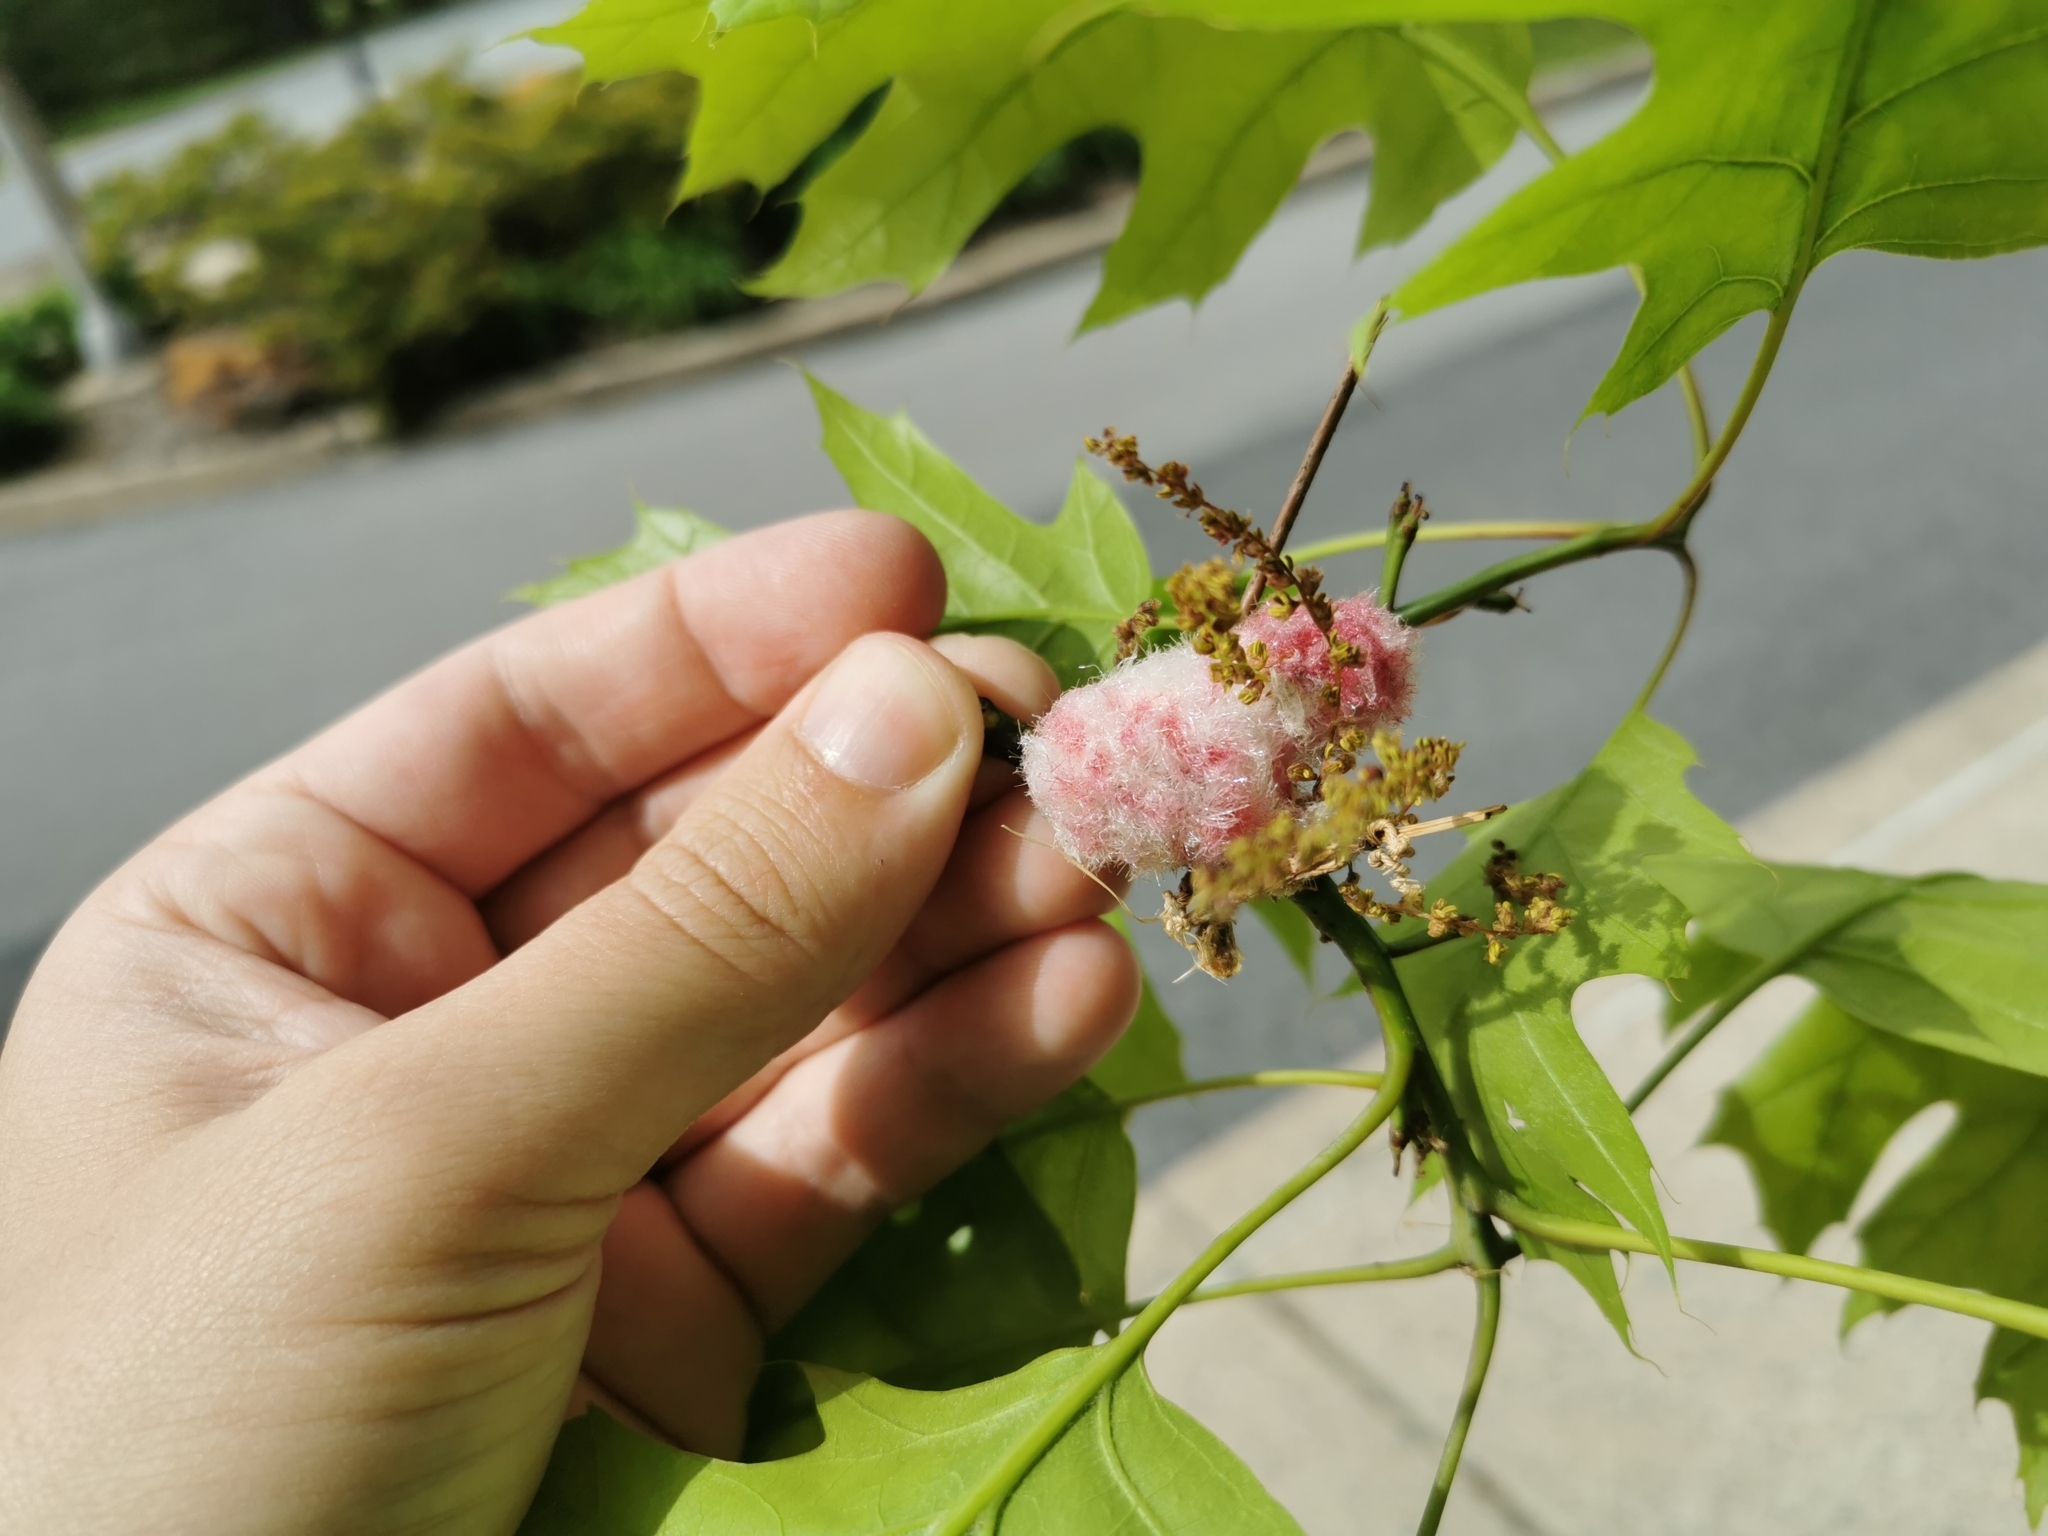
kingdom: Animalia
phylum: Arthropoda
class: Insecta
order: Hymenoptera
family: Cynipidae
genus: Callirhytis
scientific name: Callirhytis
